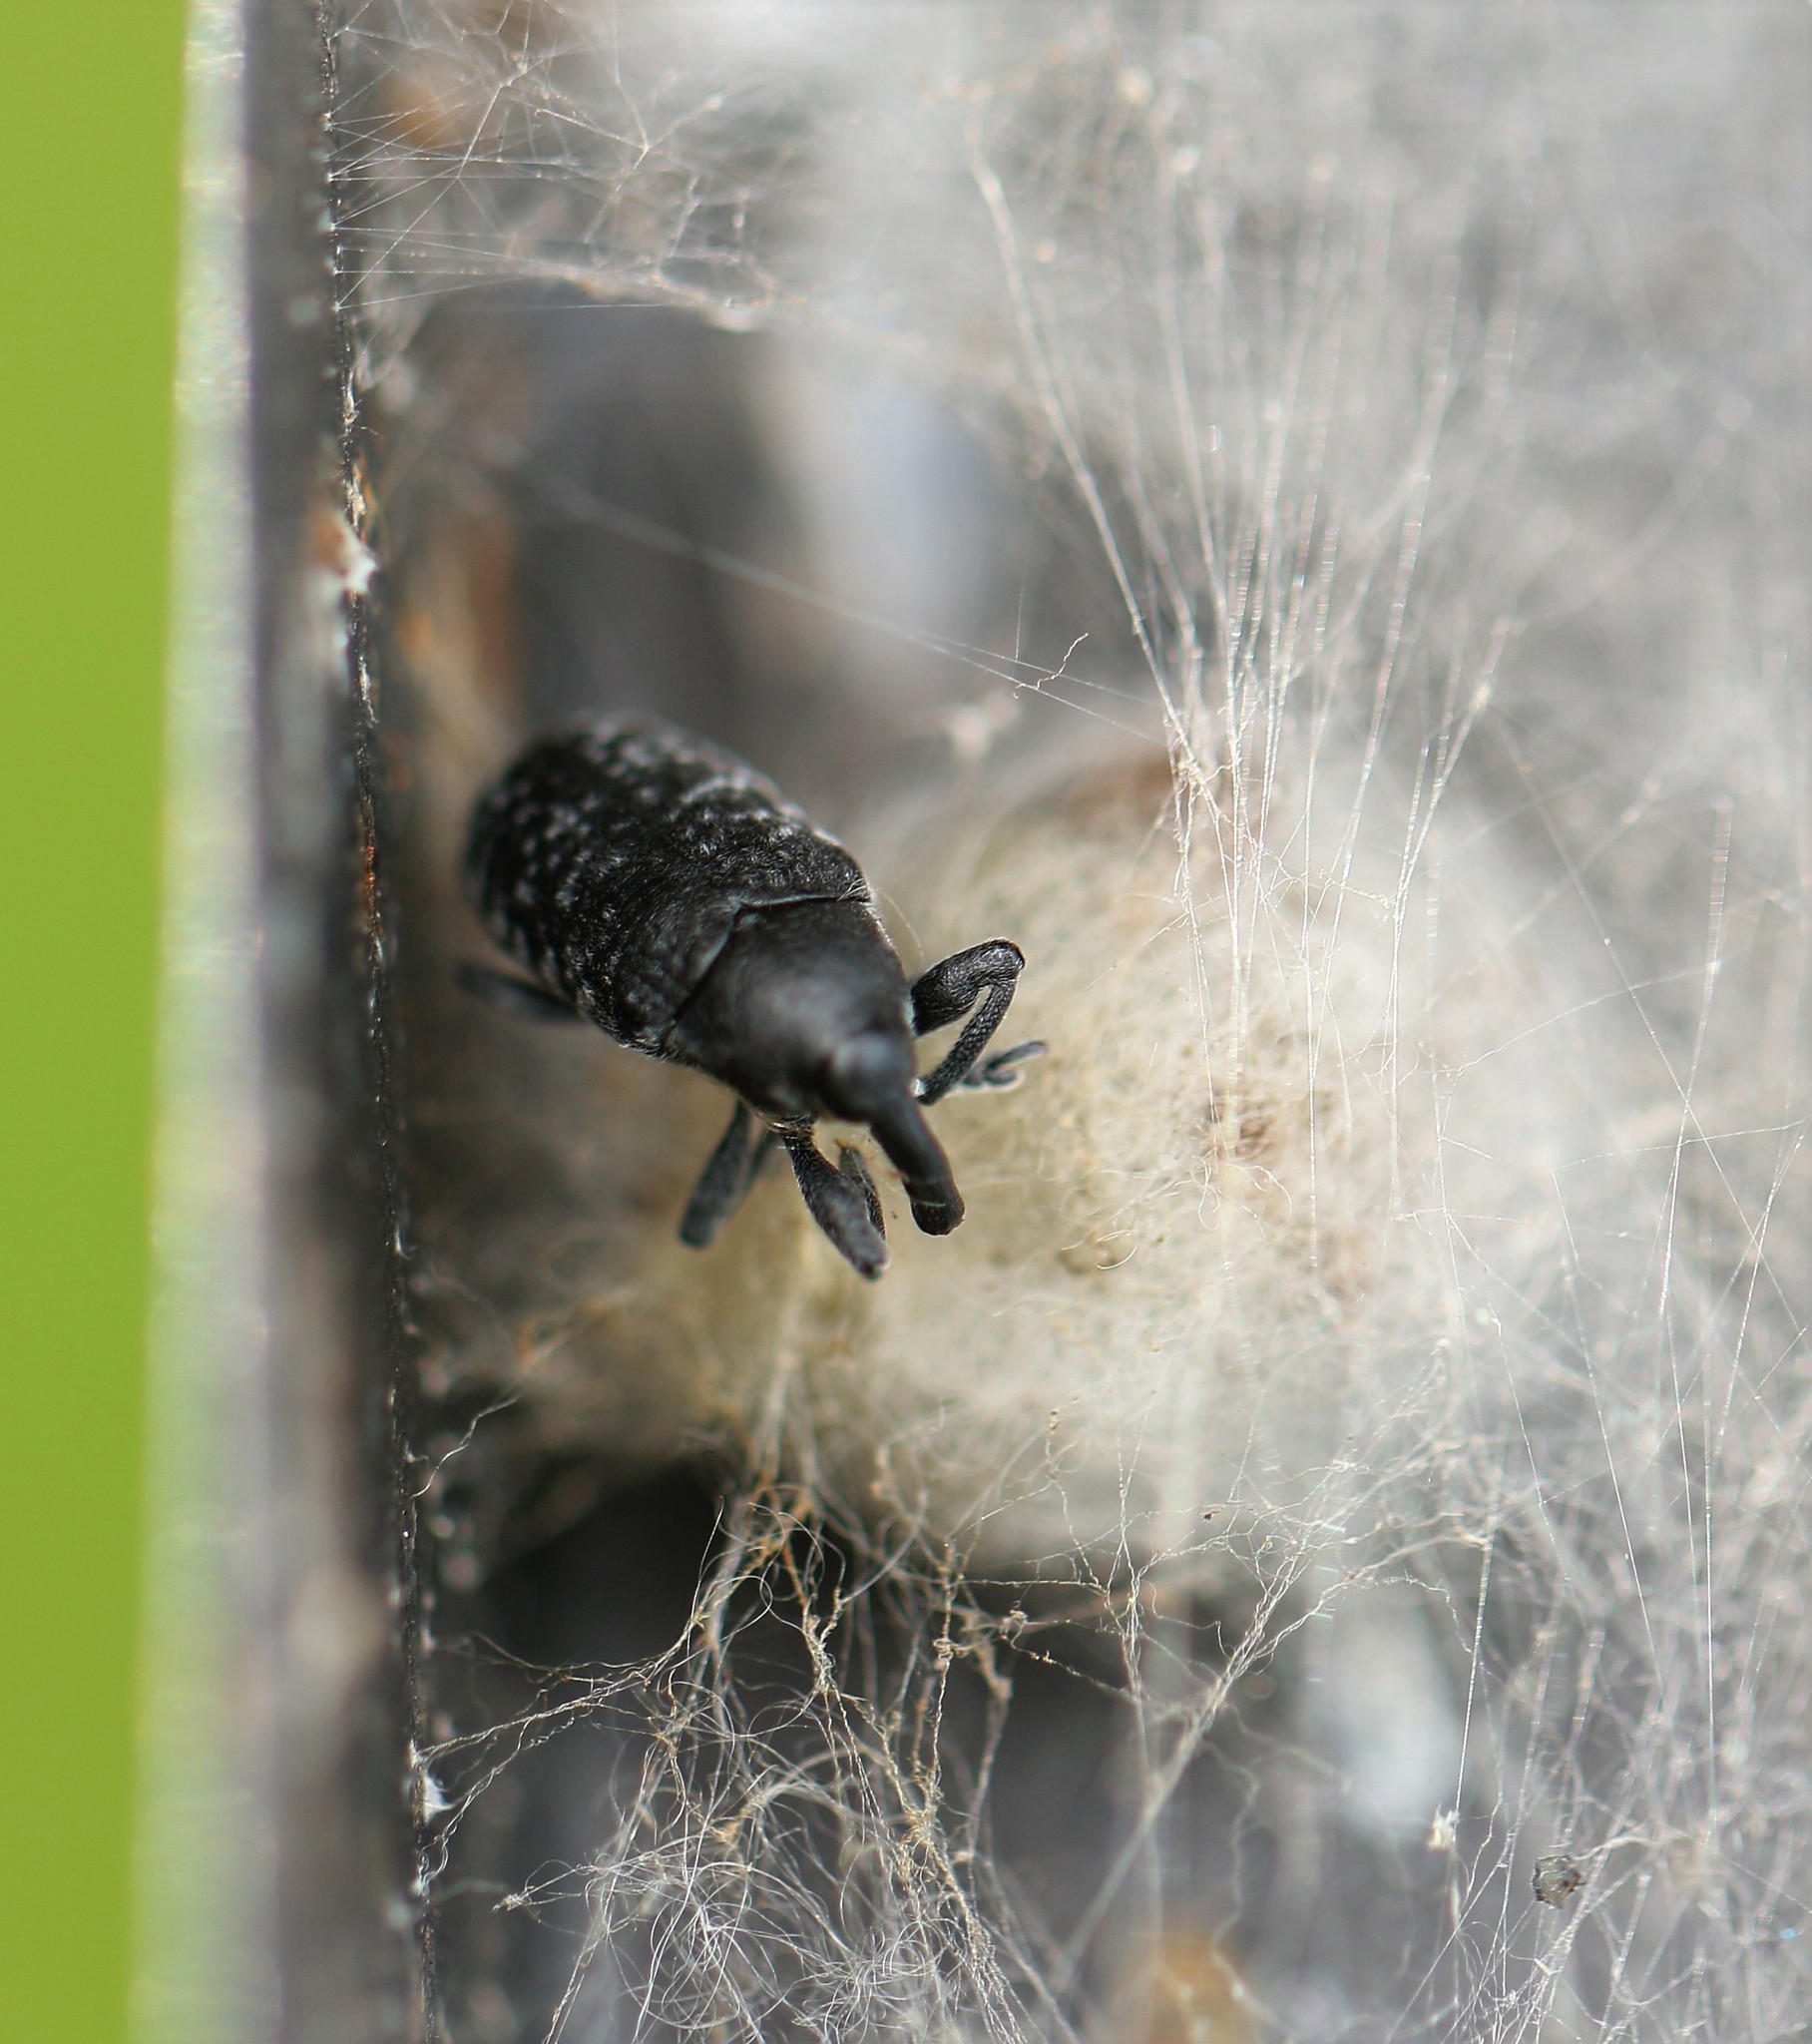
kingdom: Animalia
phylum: Arthropoda
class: Insecta
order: Coleoptera
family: Curculionidae
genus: Larinus
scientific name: Larinus carlinae
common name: Weevil
